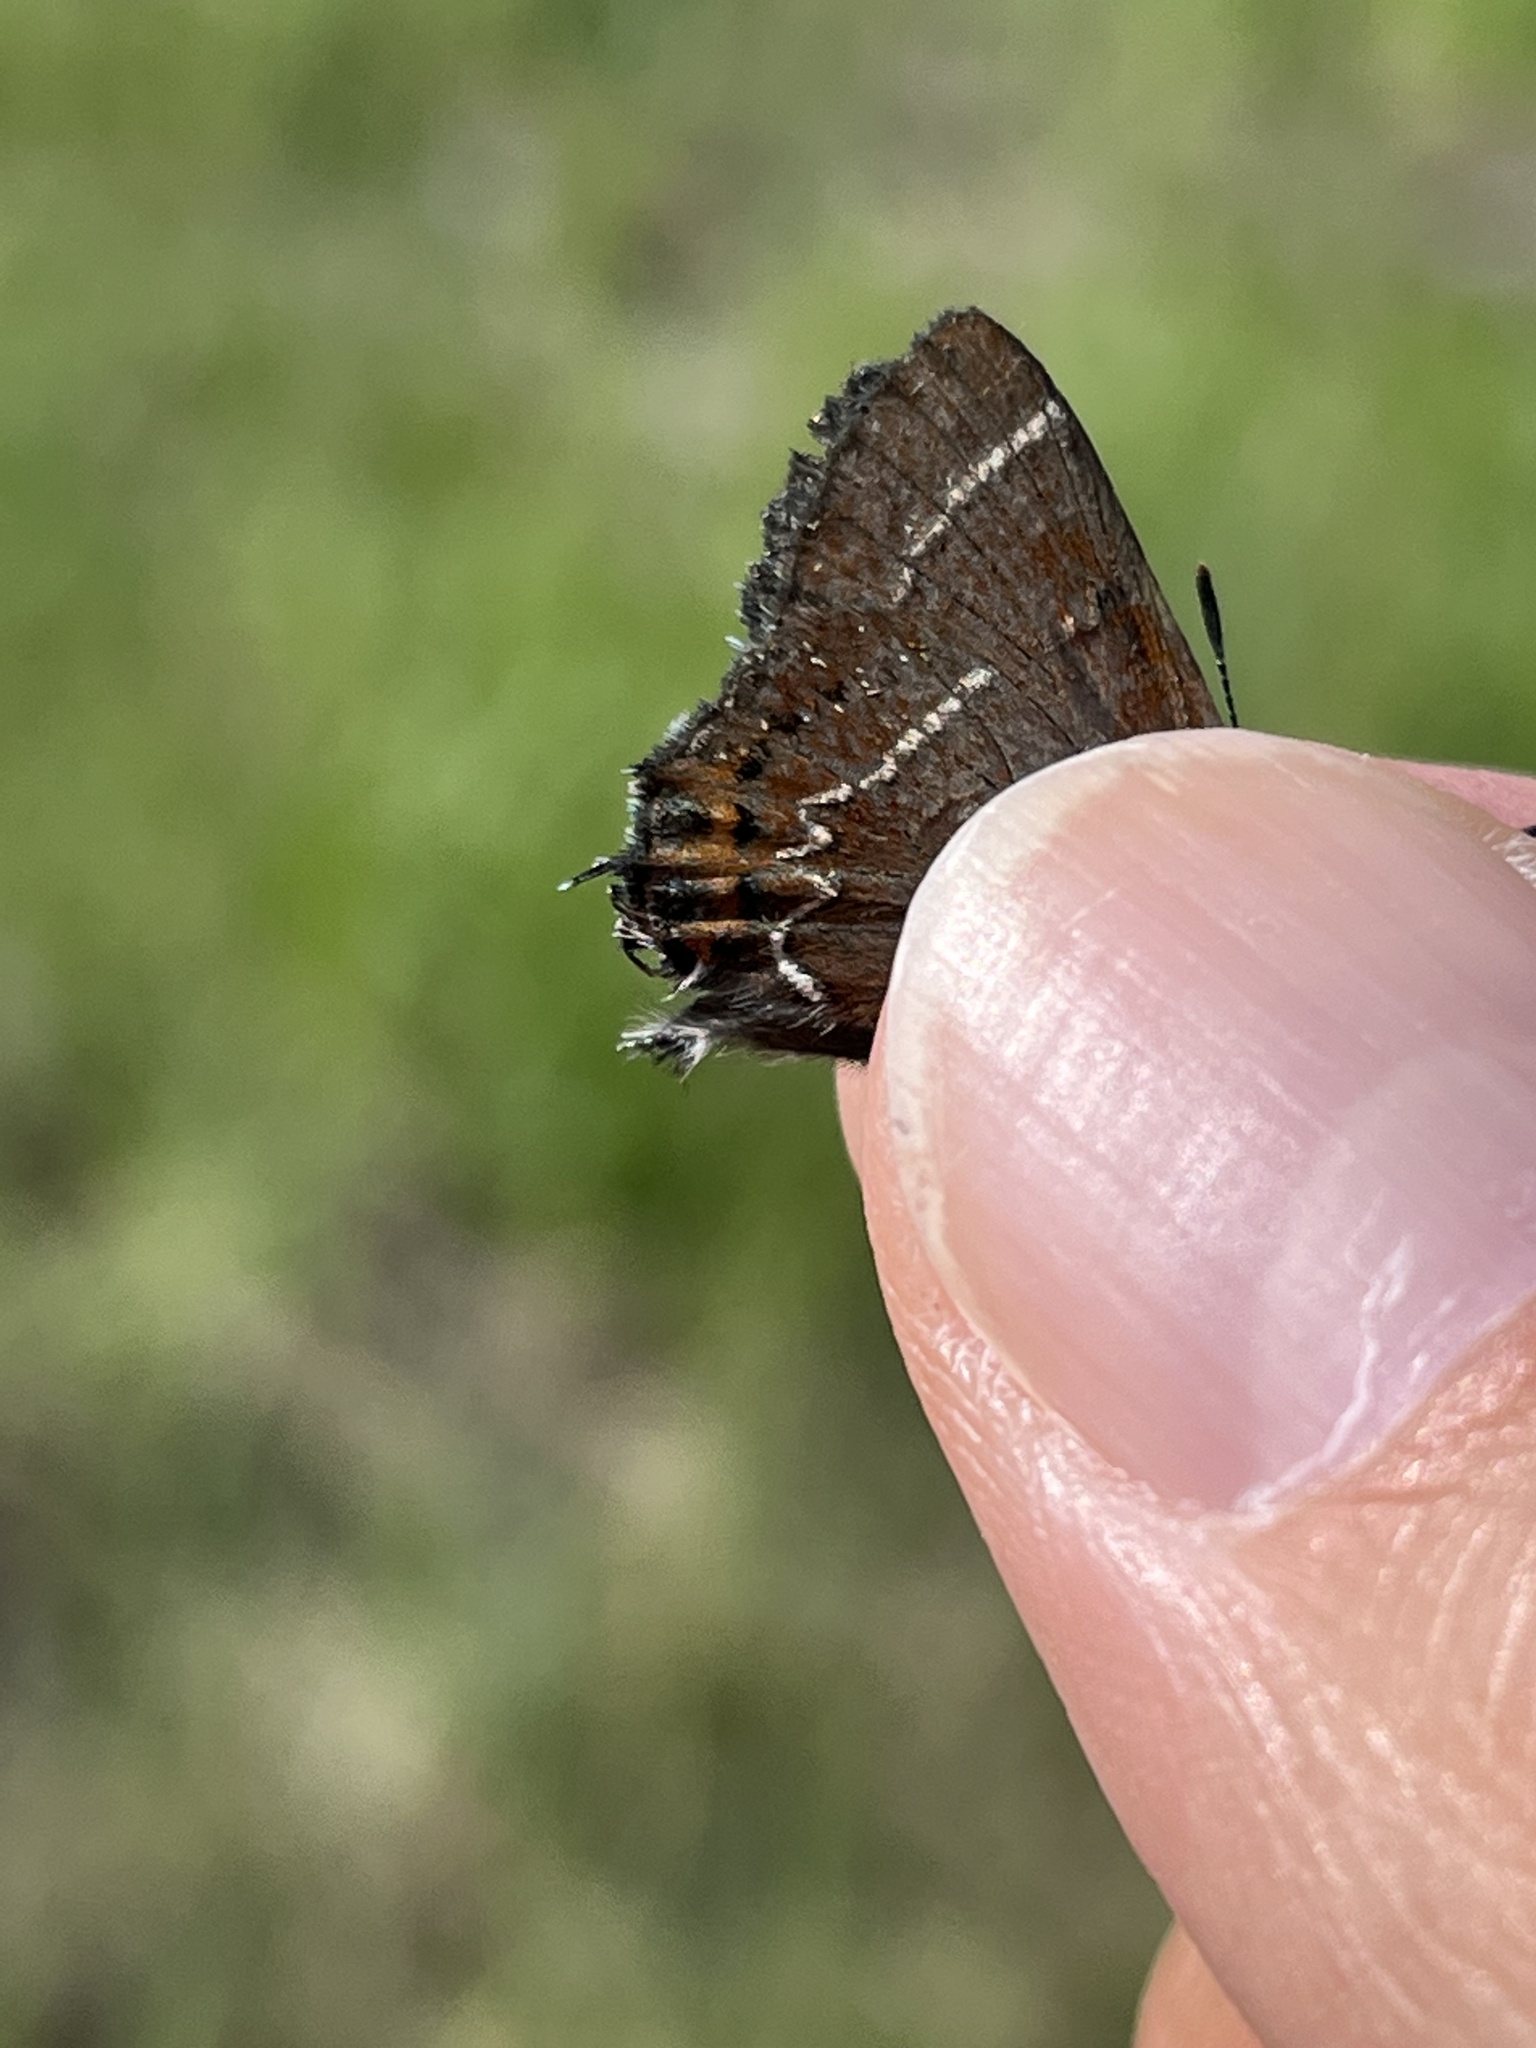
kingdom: Animalia
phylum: Arthropoda
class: Insecta
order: Lepidoptera
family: Lycaenidae
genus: Mitoura
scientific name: Mitoura spinetorum
